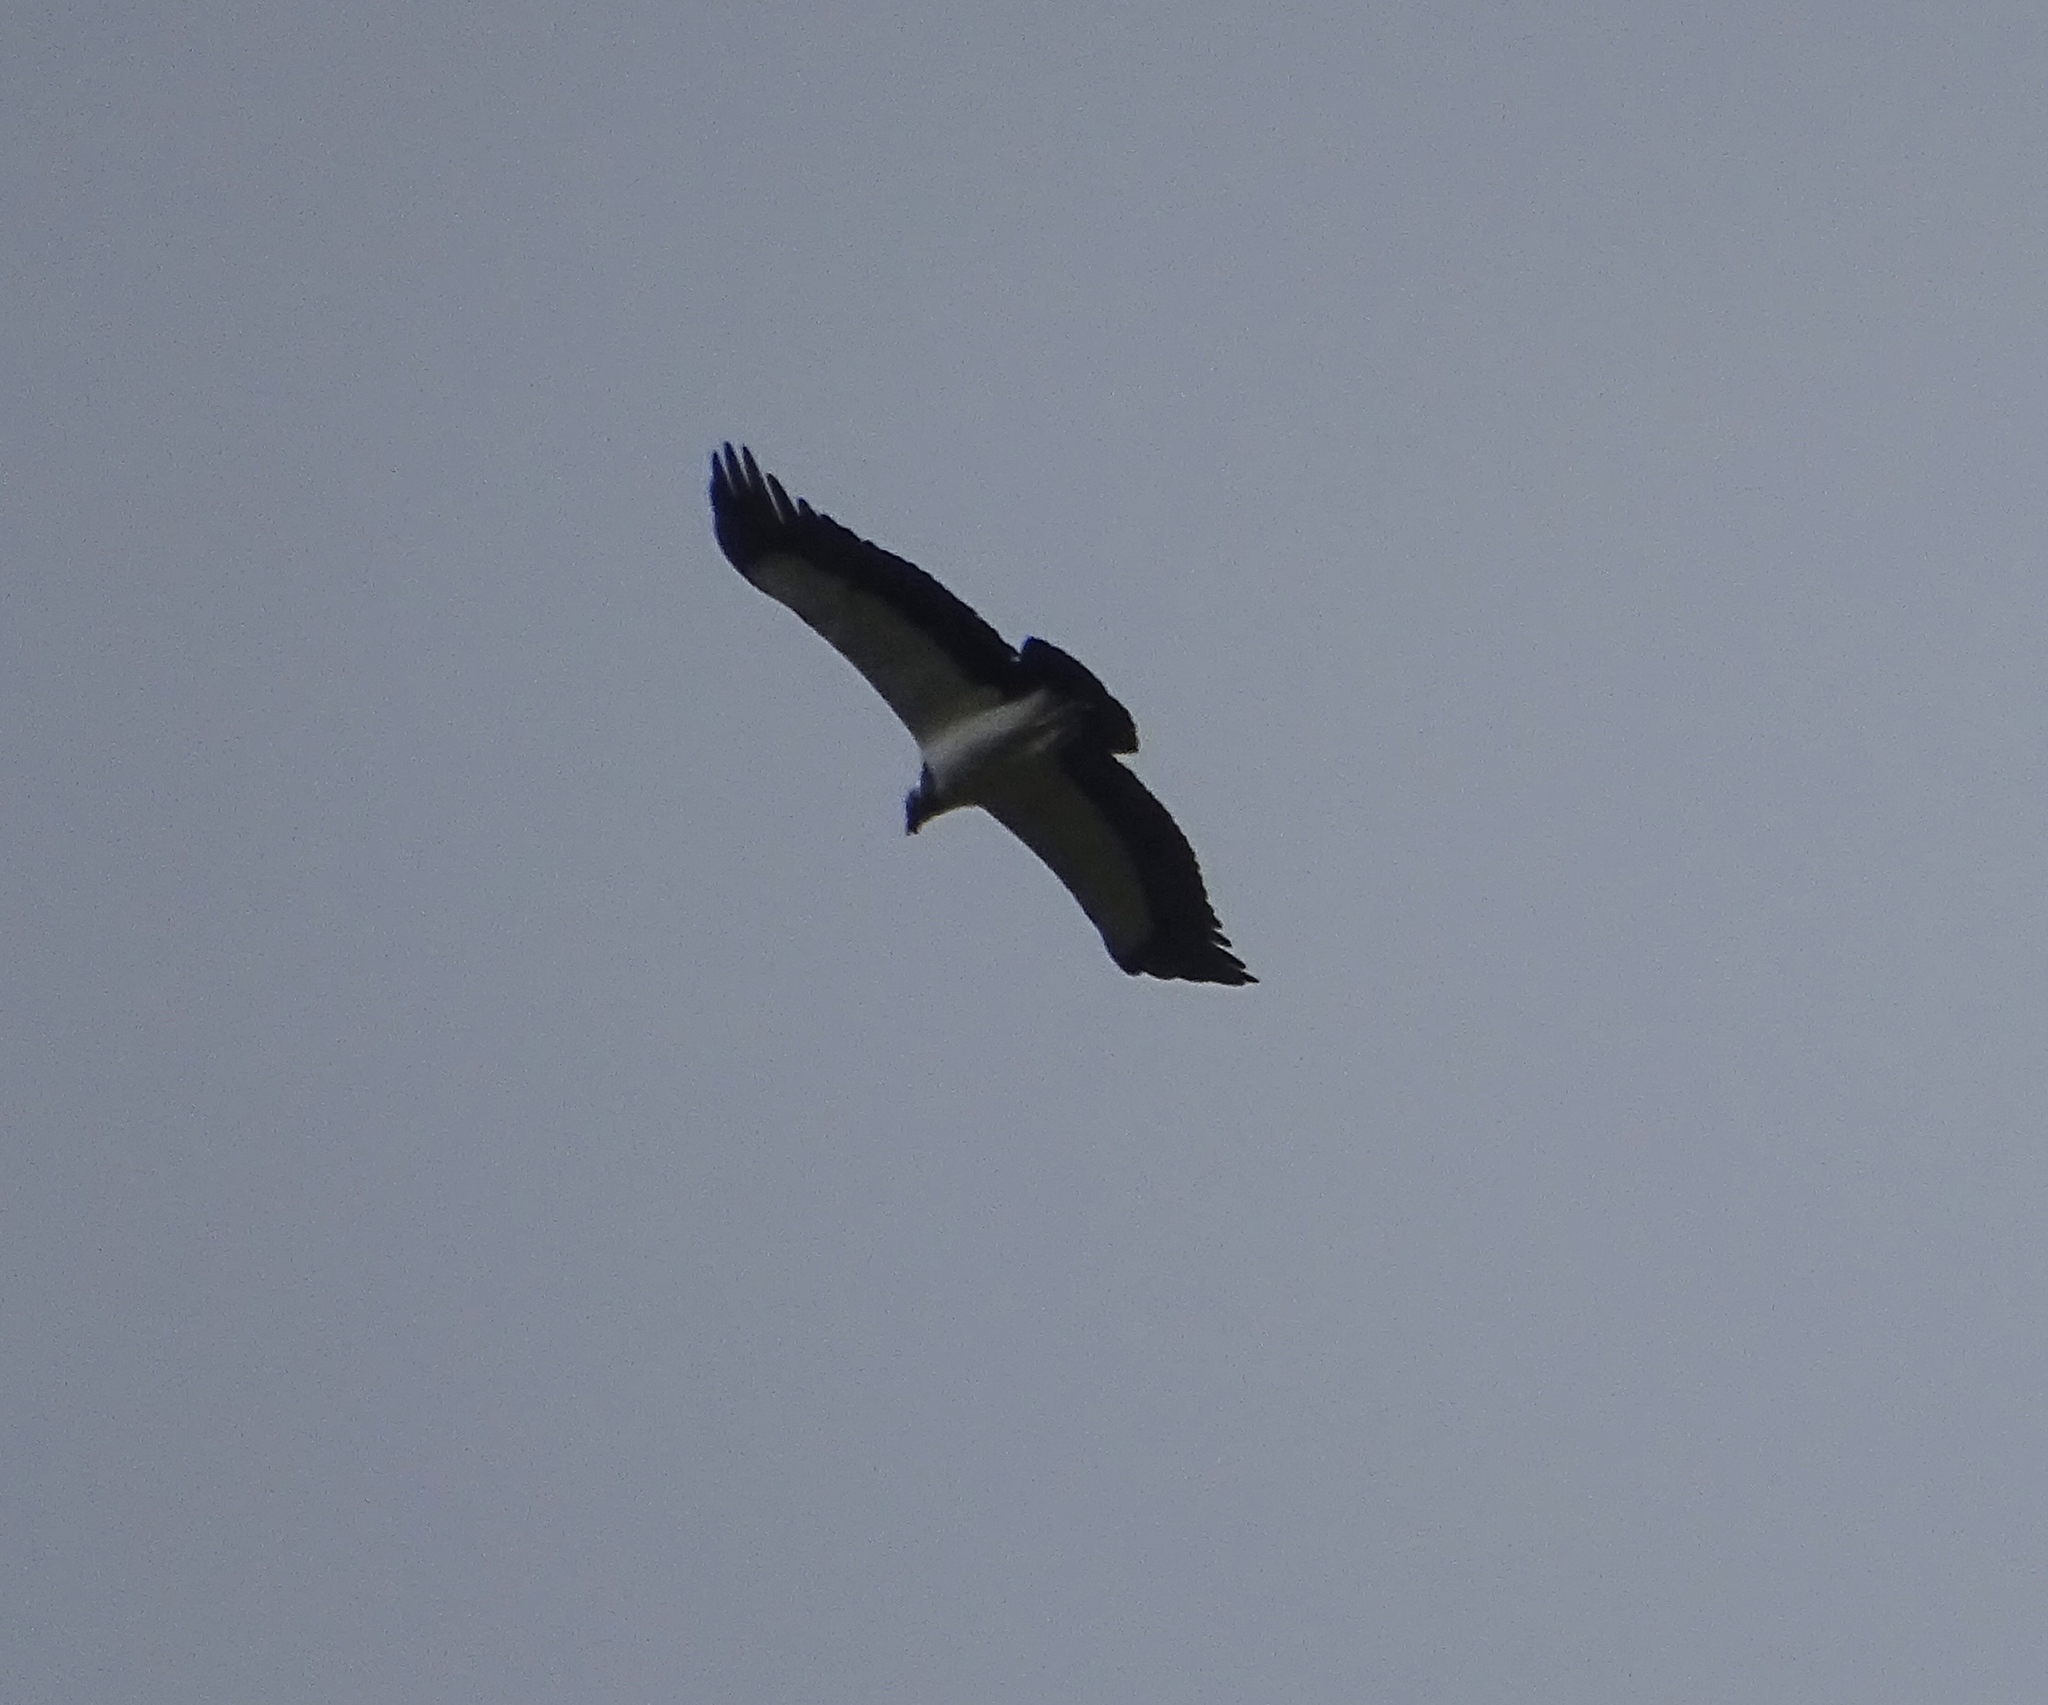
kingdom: Animalia
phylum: Chordata
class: Aves
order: Accipitriformes
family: Cathartidae
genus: Sarcoramphus
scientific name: Sarcoramphus papa
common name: King vulture
